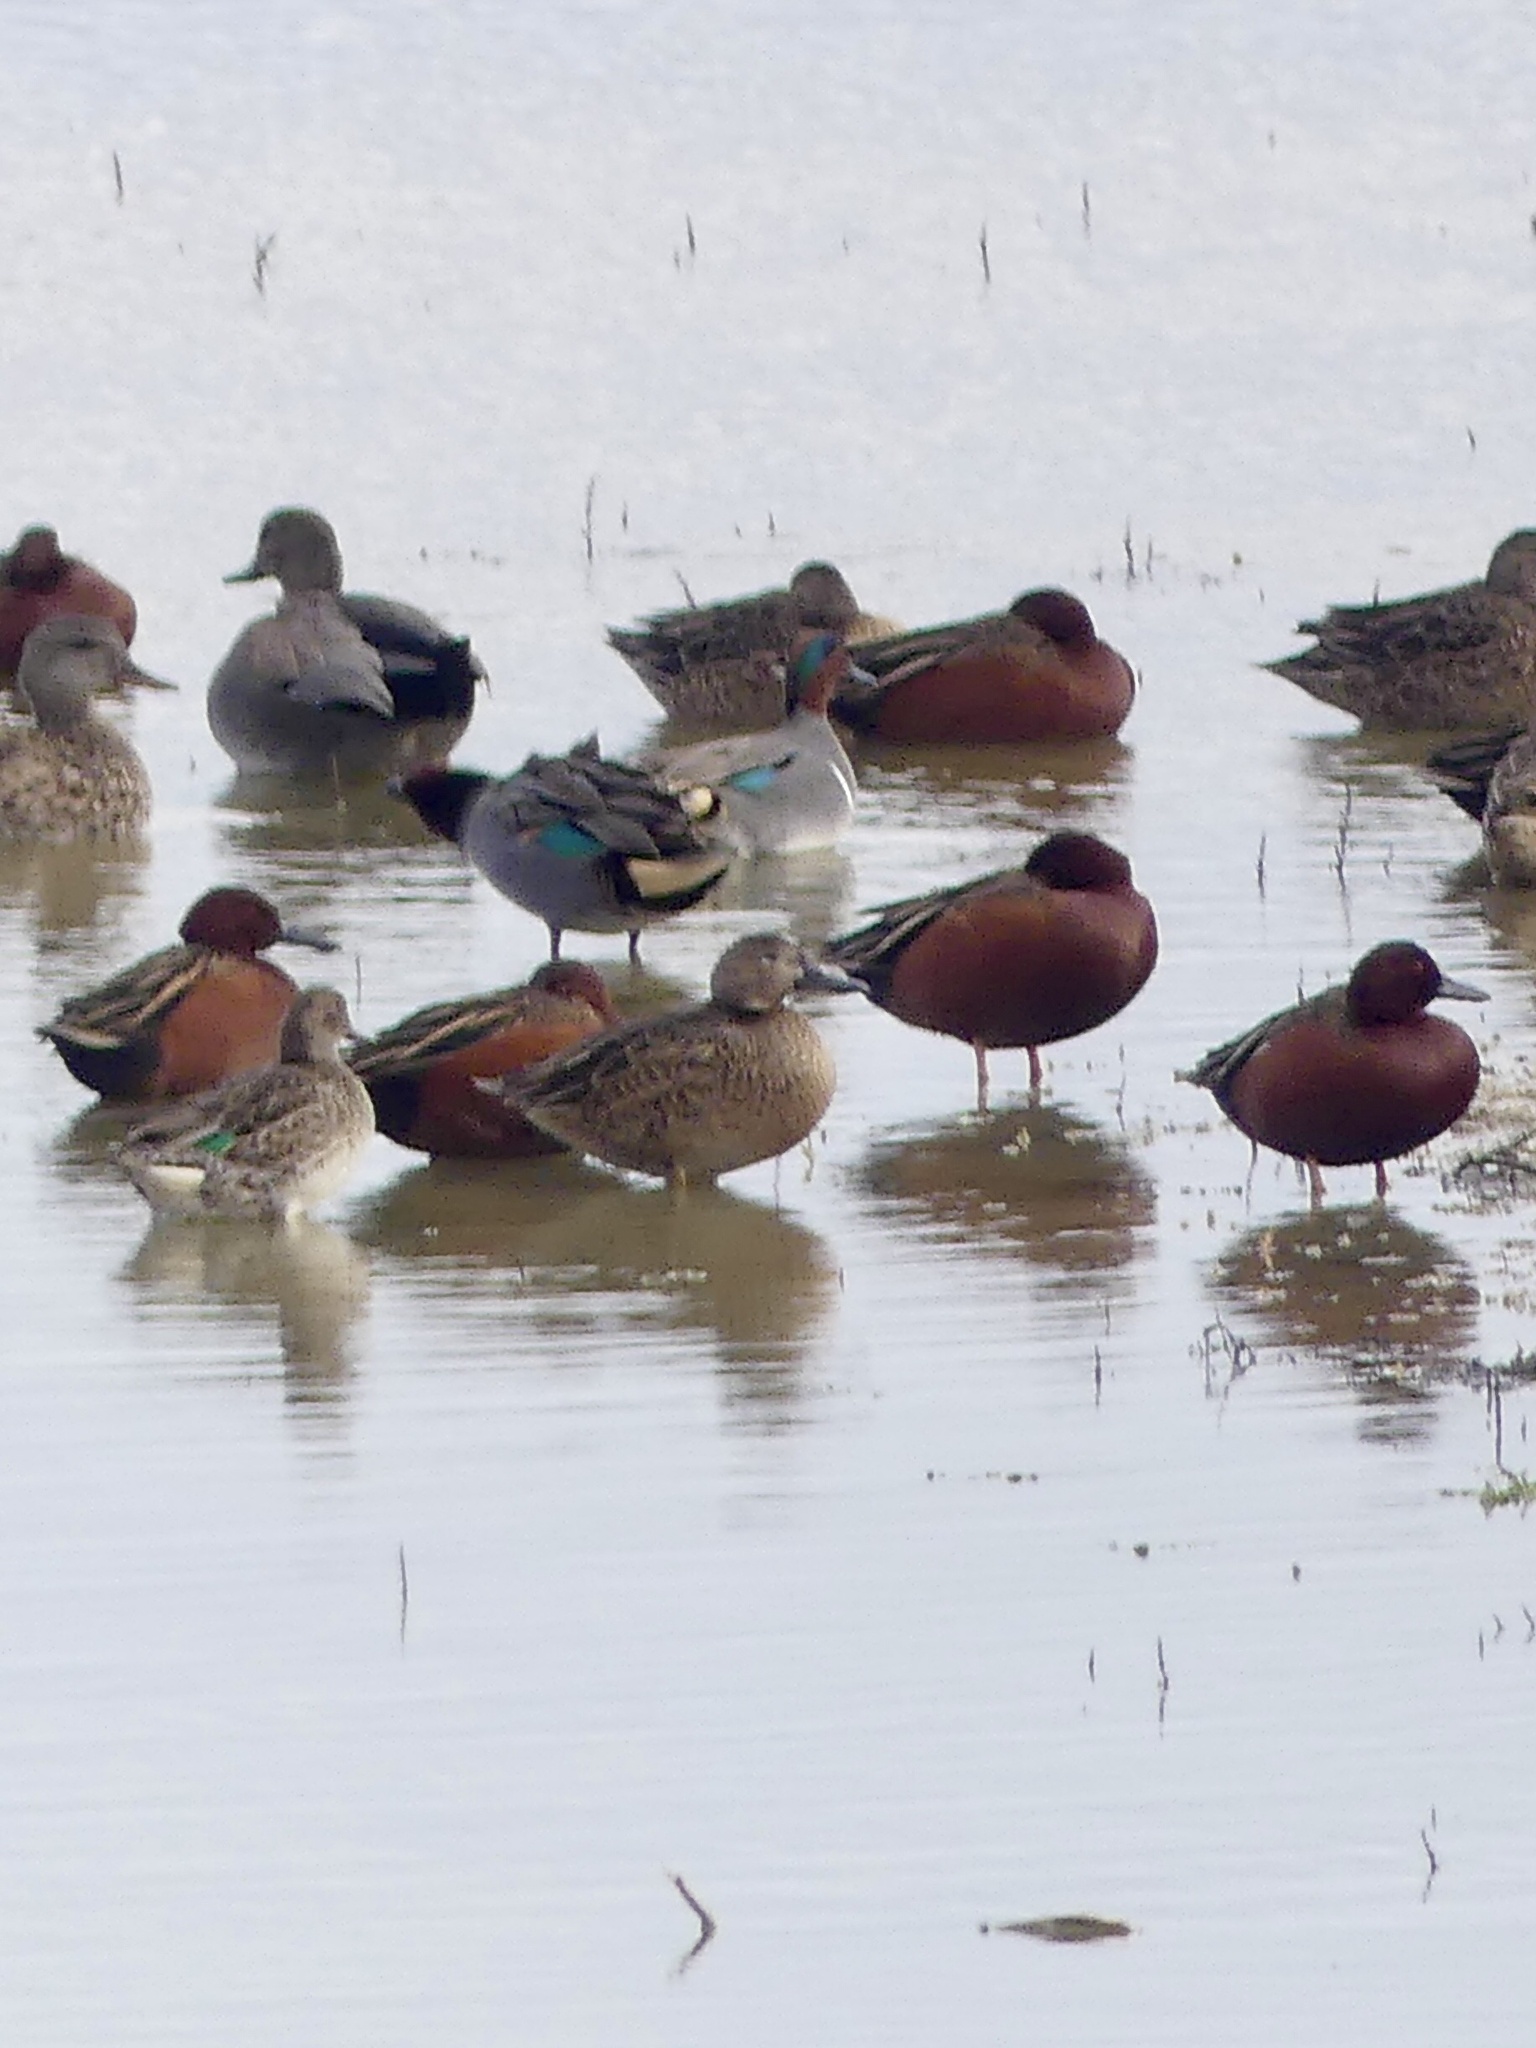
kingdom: Animalia
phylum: Chordata
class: Aves
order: Anseriformes
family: Anatidae
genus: Anas
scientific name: Anas crecca
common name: Eurasian teal
